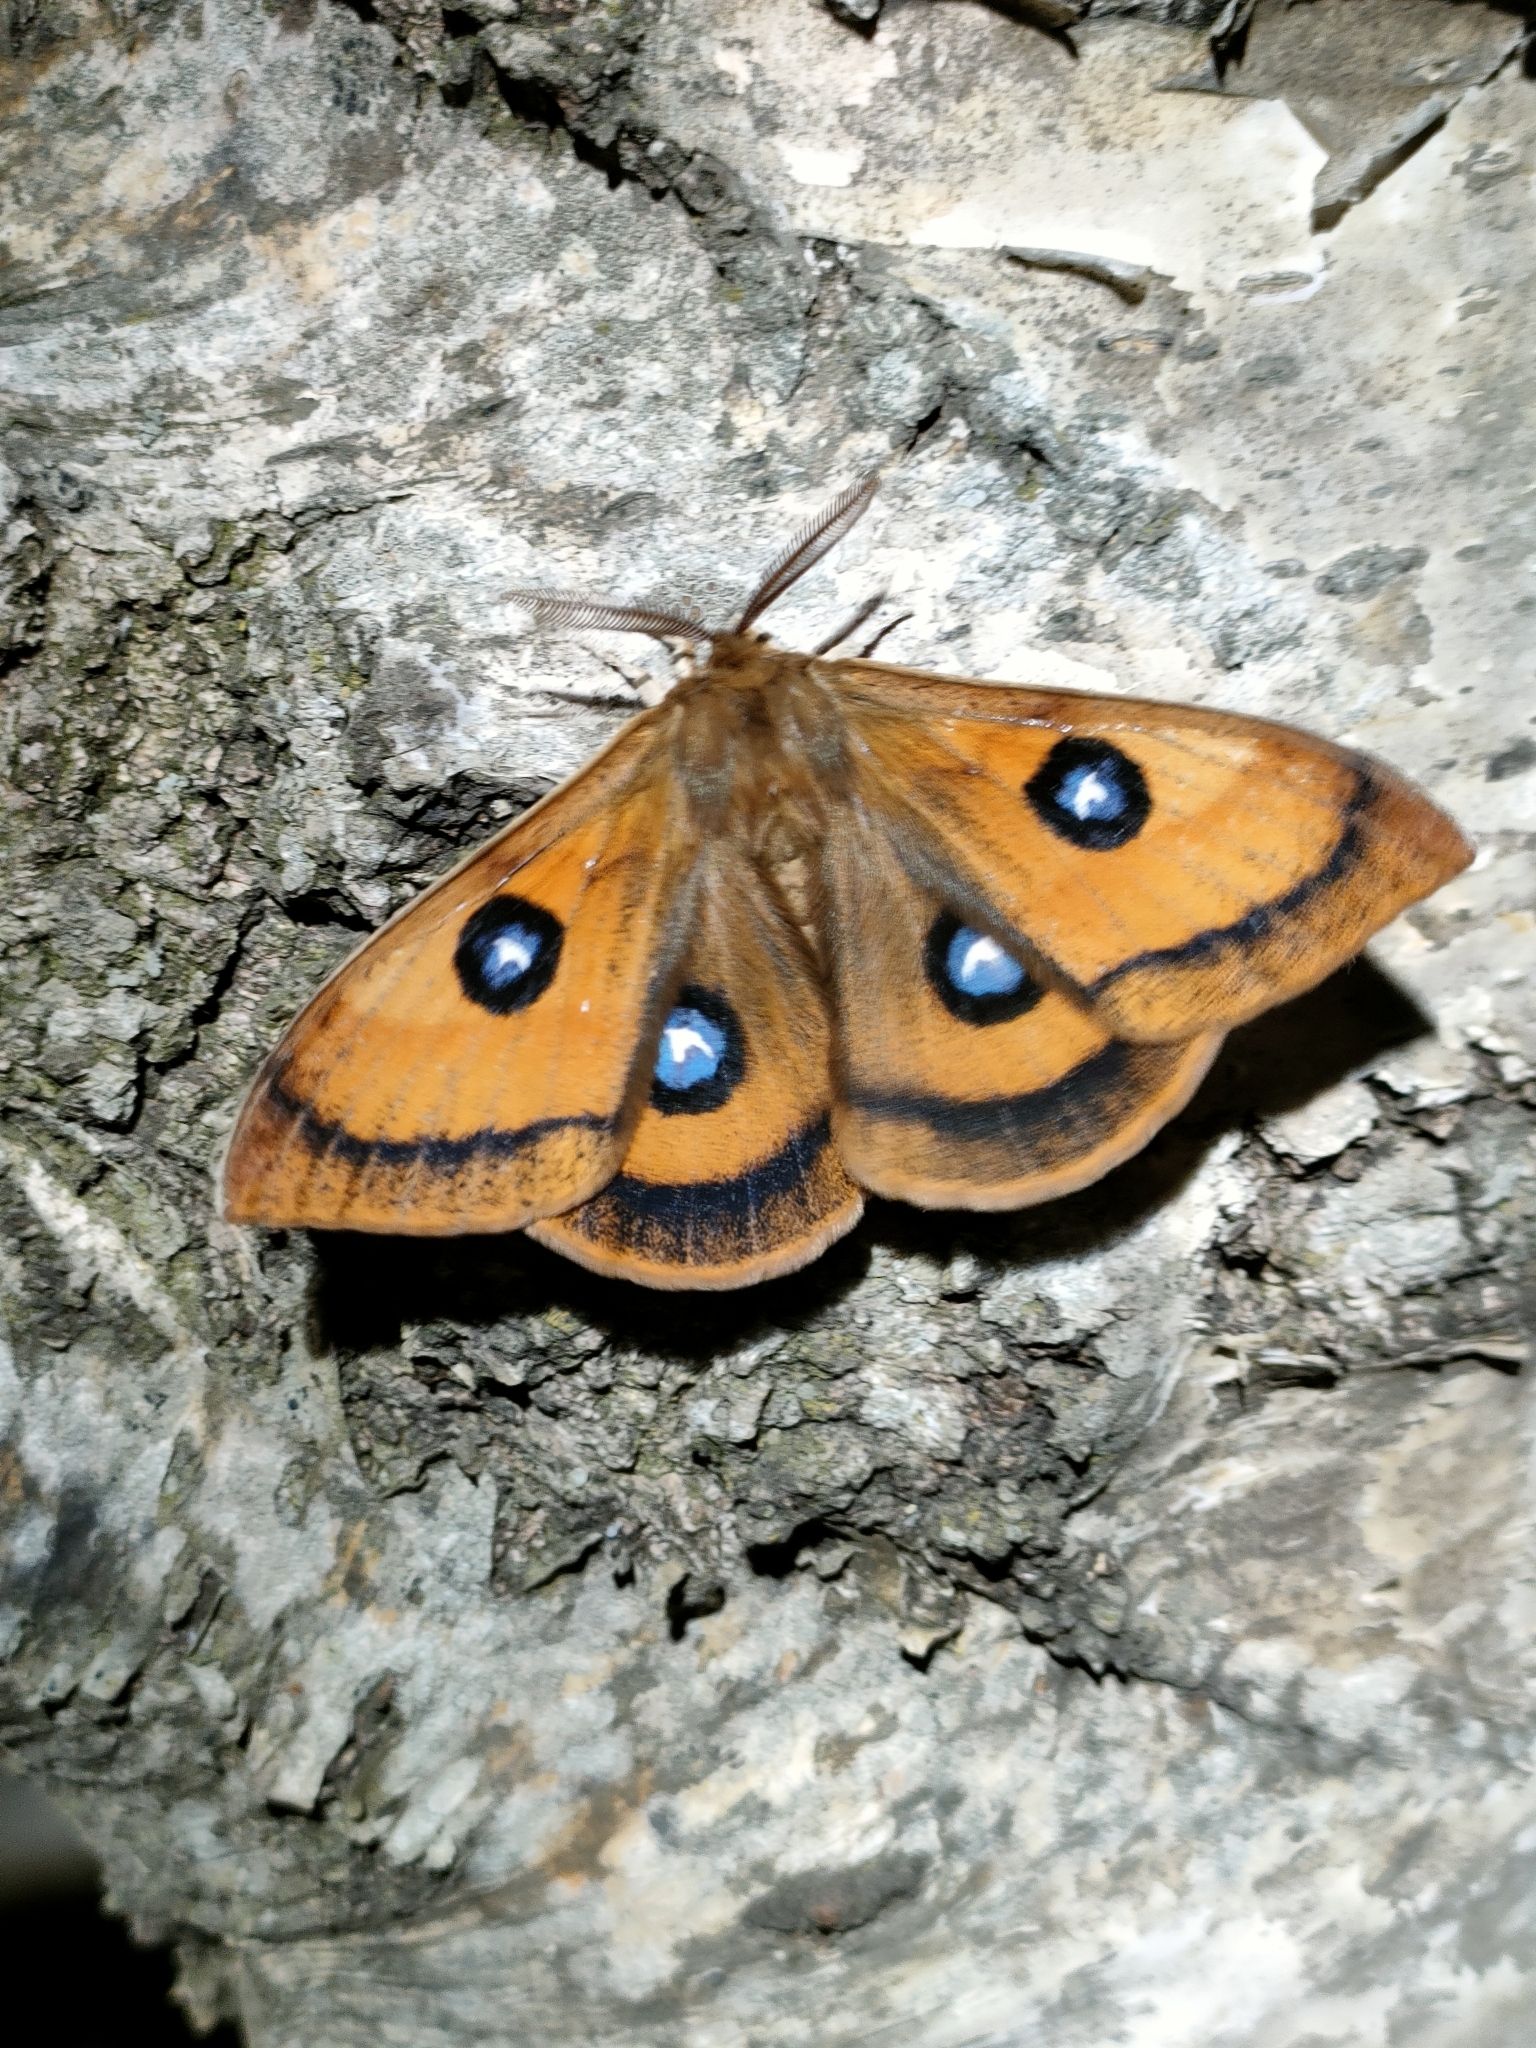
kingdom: Animalia
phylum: Arthropoda
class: Insecta
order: Lepidoptera
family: Saturniidae
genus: Aglia
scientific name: Aglia tau
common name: Tau emperor
